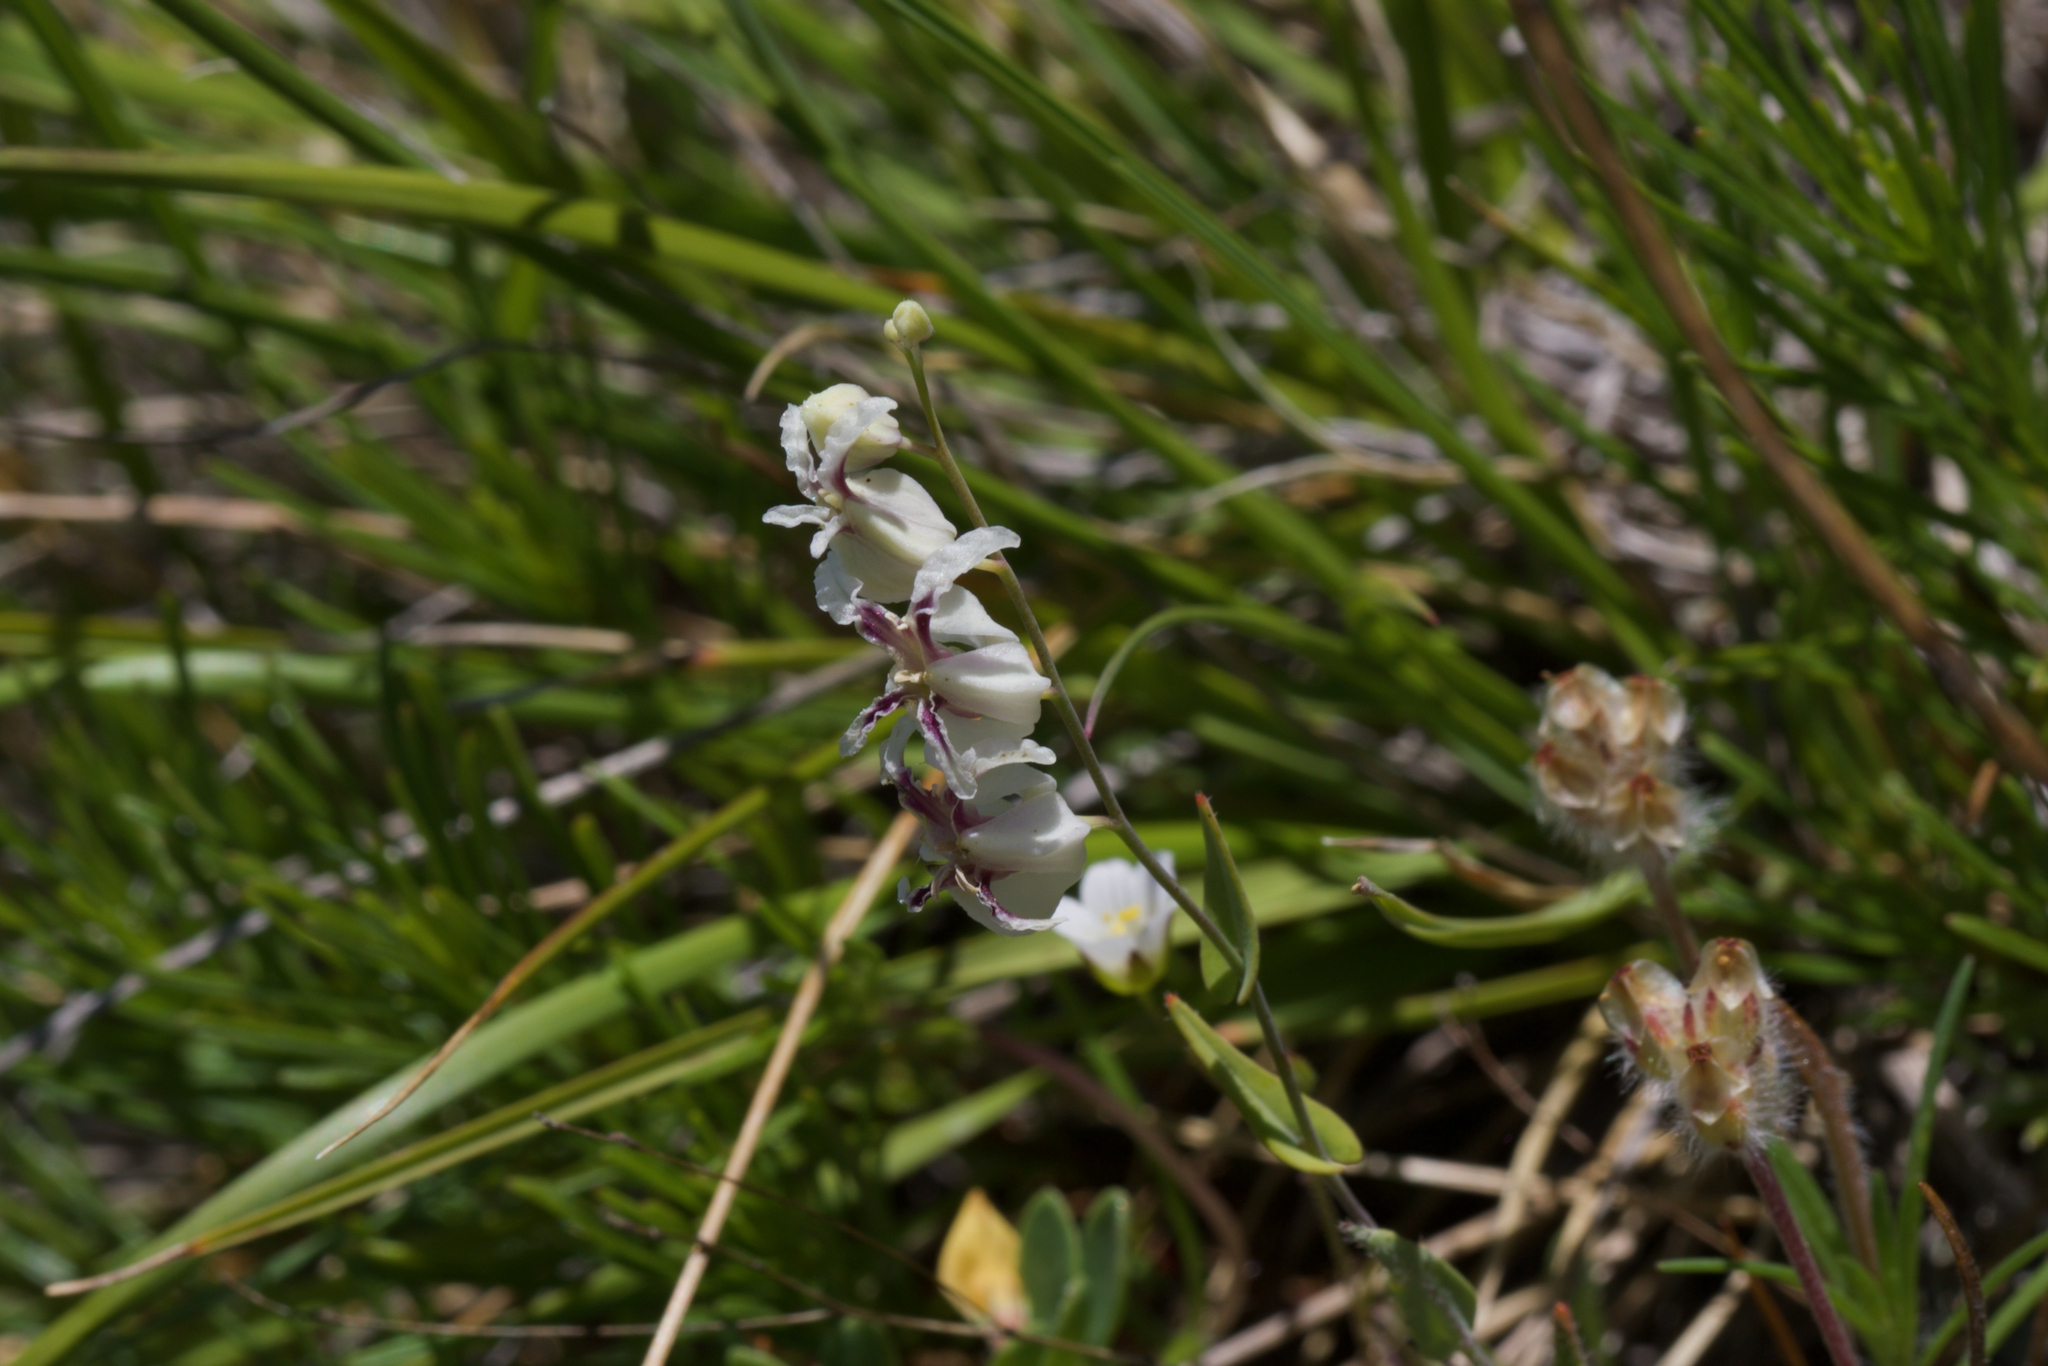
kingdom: Plantae
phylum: Tracheophyta
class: Magnoliopsida
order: Brassicales
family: Brassicaceae
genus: Streptanthus
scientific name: Streptanthus glandulosus
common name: Jewel-flower
